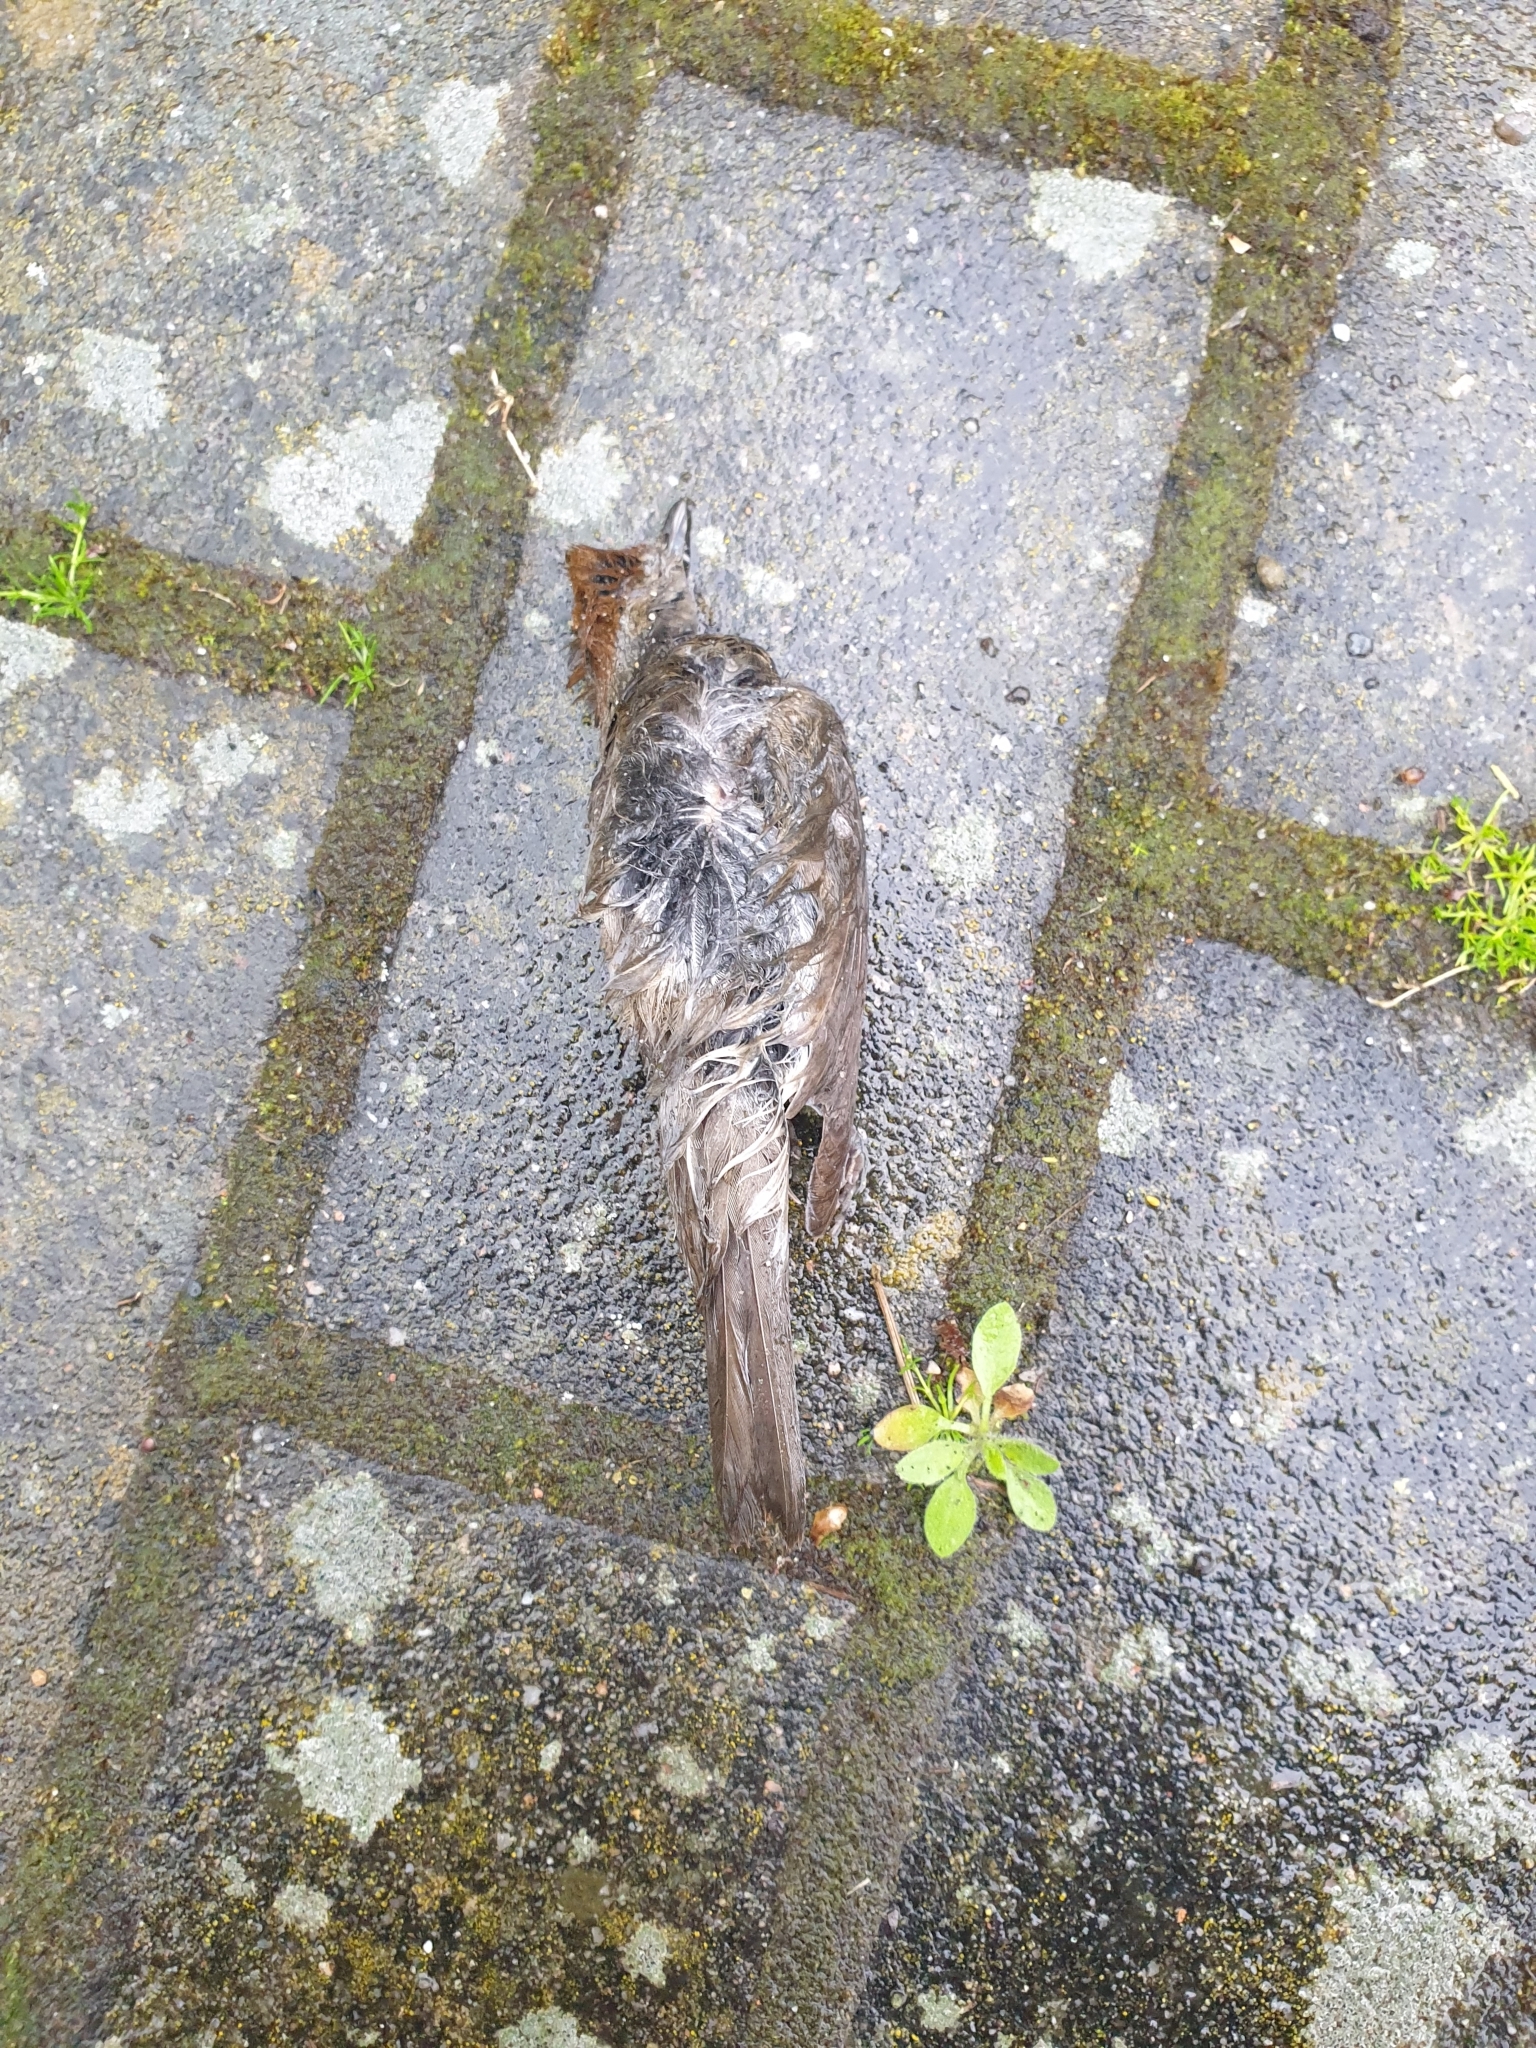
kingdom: Animalia
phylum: Chordata
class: Aves
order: Passeriformes
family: Sylviidae
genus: Sylvia
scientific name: Sylvia atricapilla
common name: Eurasian blackcap
